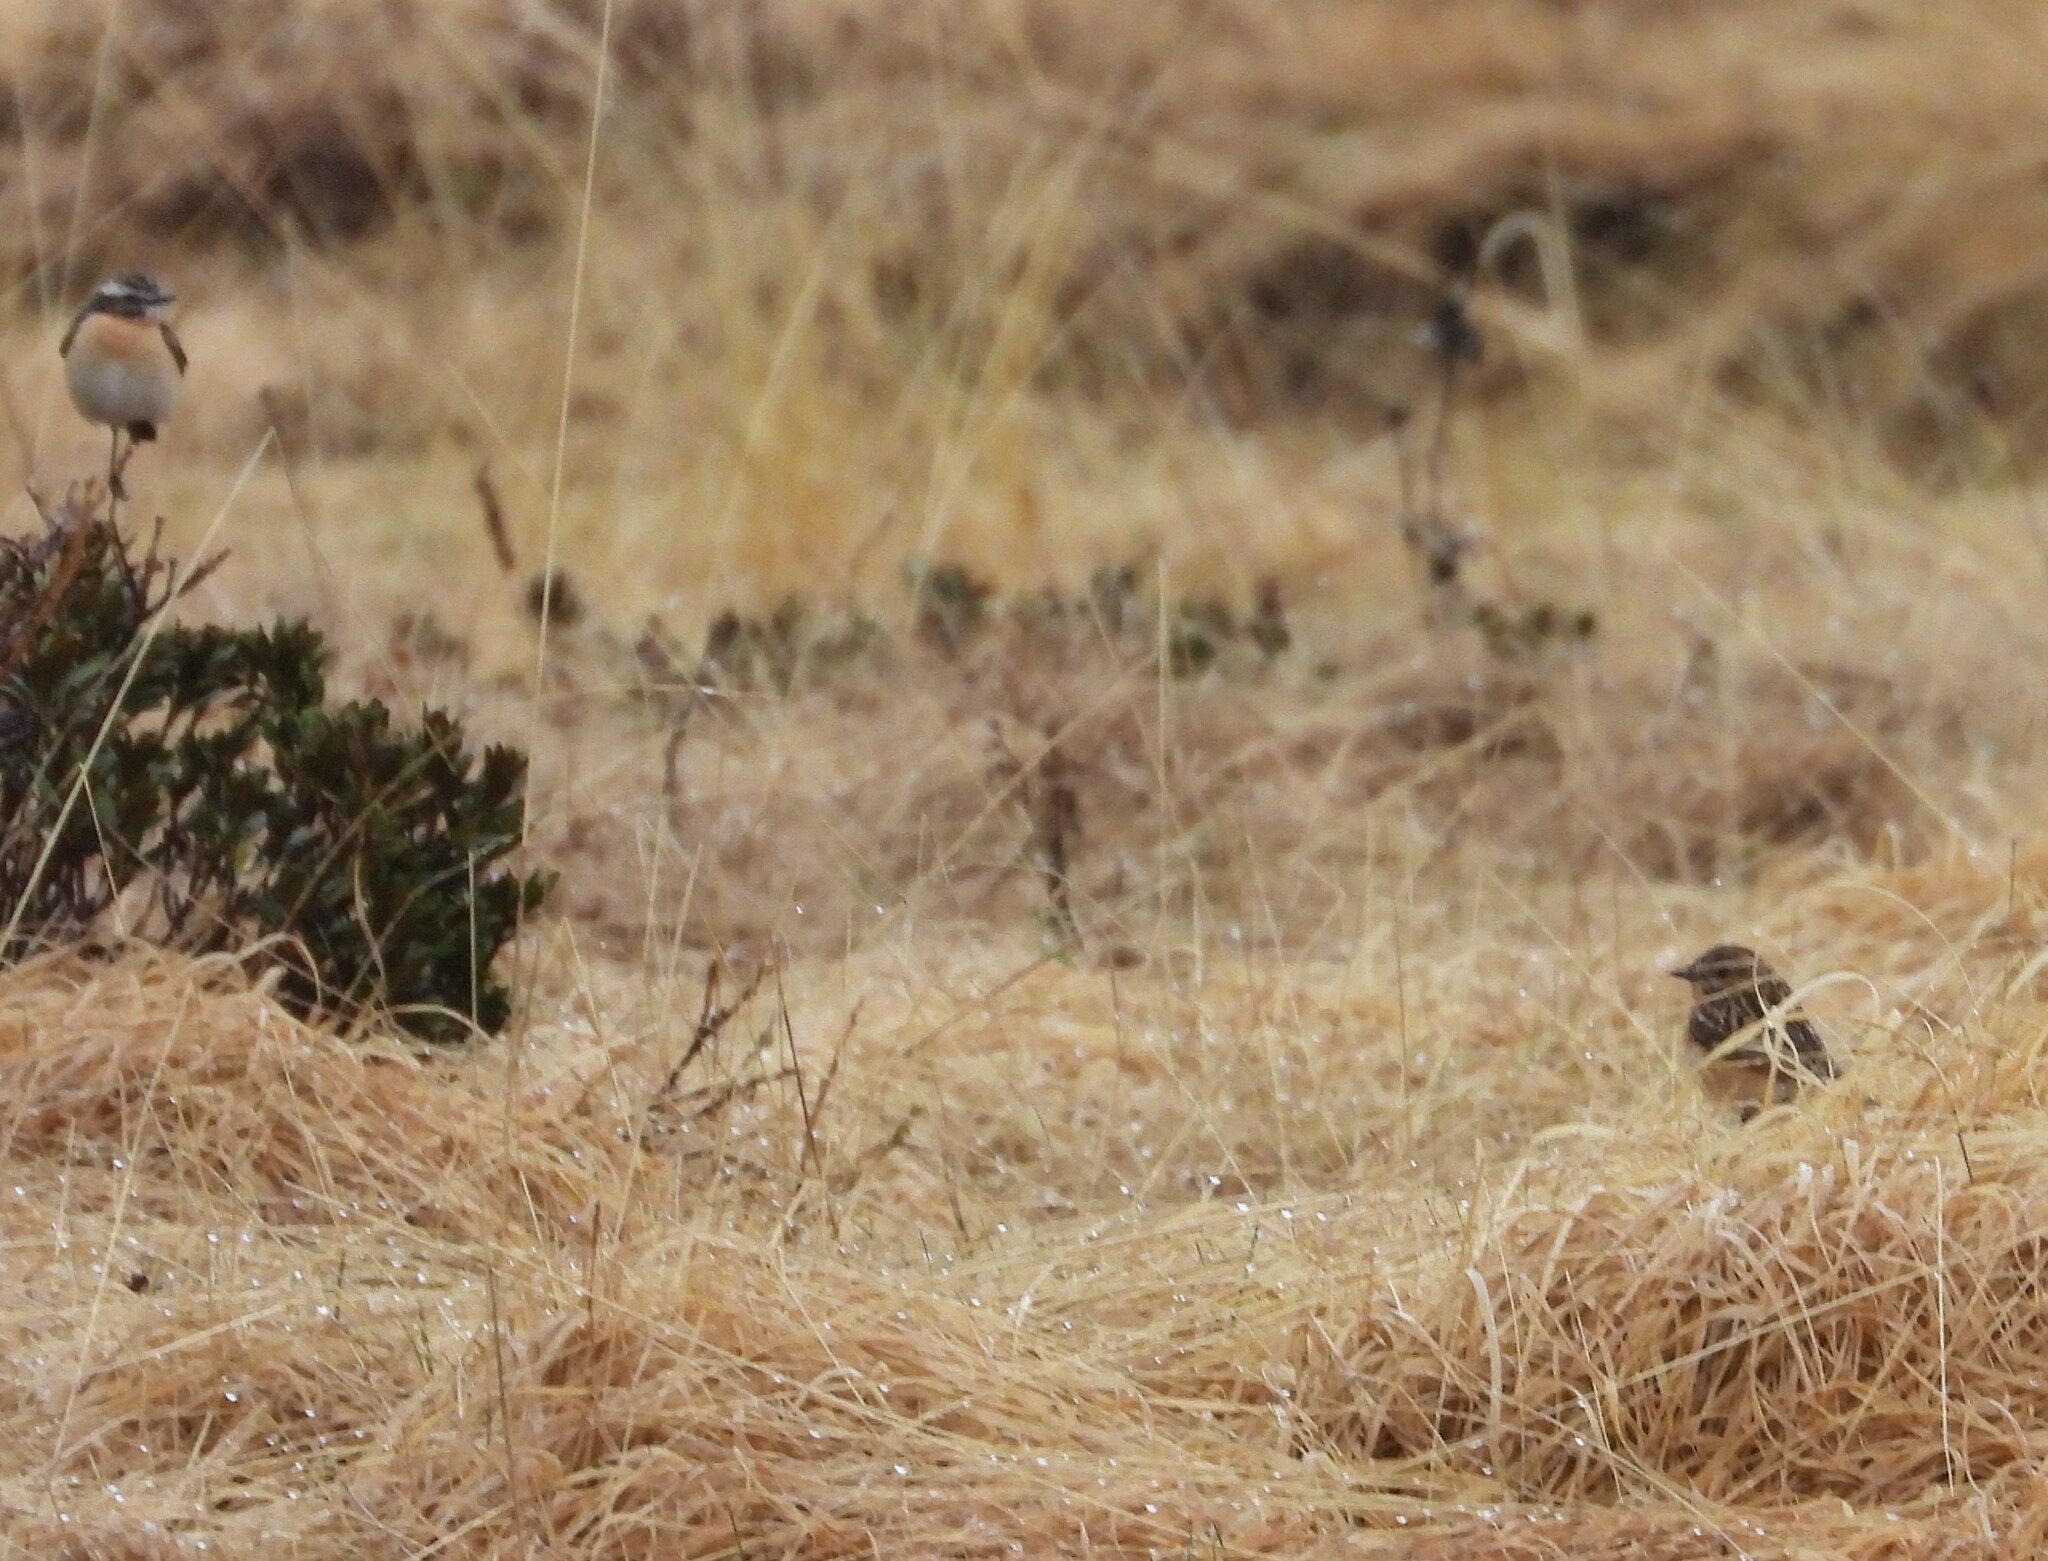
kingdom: Animalia
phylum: Chordata
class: Aves
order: Passeriformes
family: Muscicapidae
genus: Saxicola
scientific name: Saxicola rubetra
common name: Whinchat
